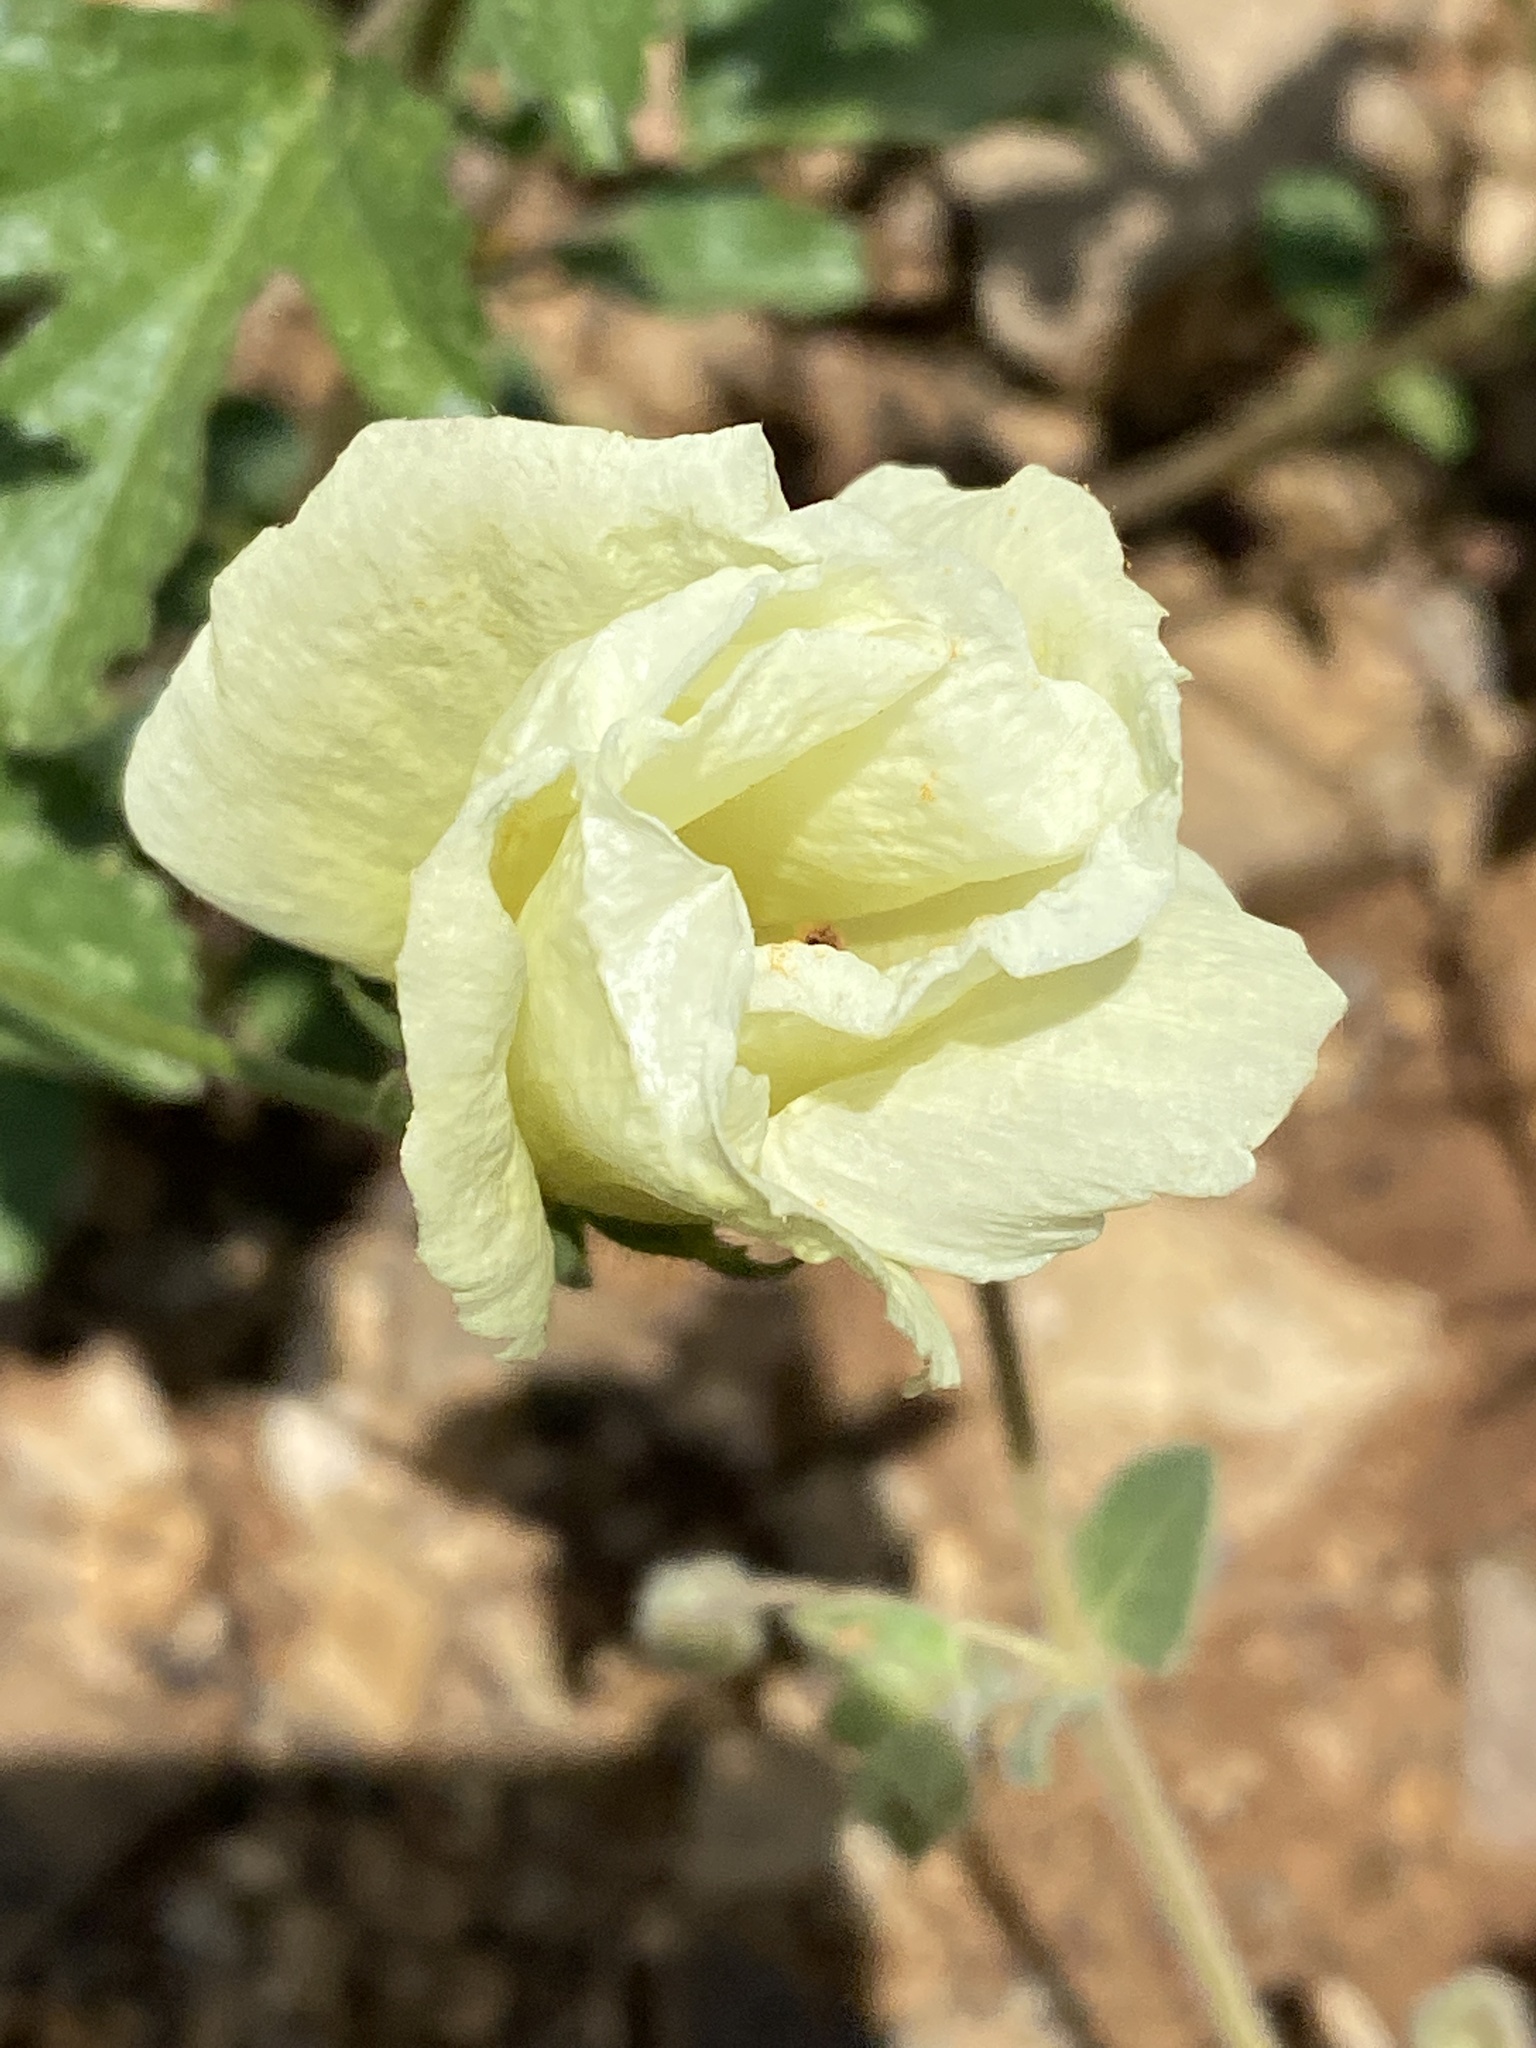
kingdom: Plantae
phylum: Tracheophyta
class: Magnoliopsida
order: Malvales
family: Malvaceae
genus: Hibiscus
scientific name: Hibiscus coulteri
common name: Desert rose-mallow
